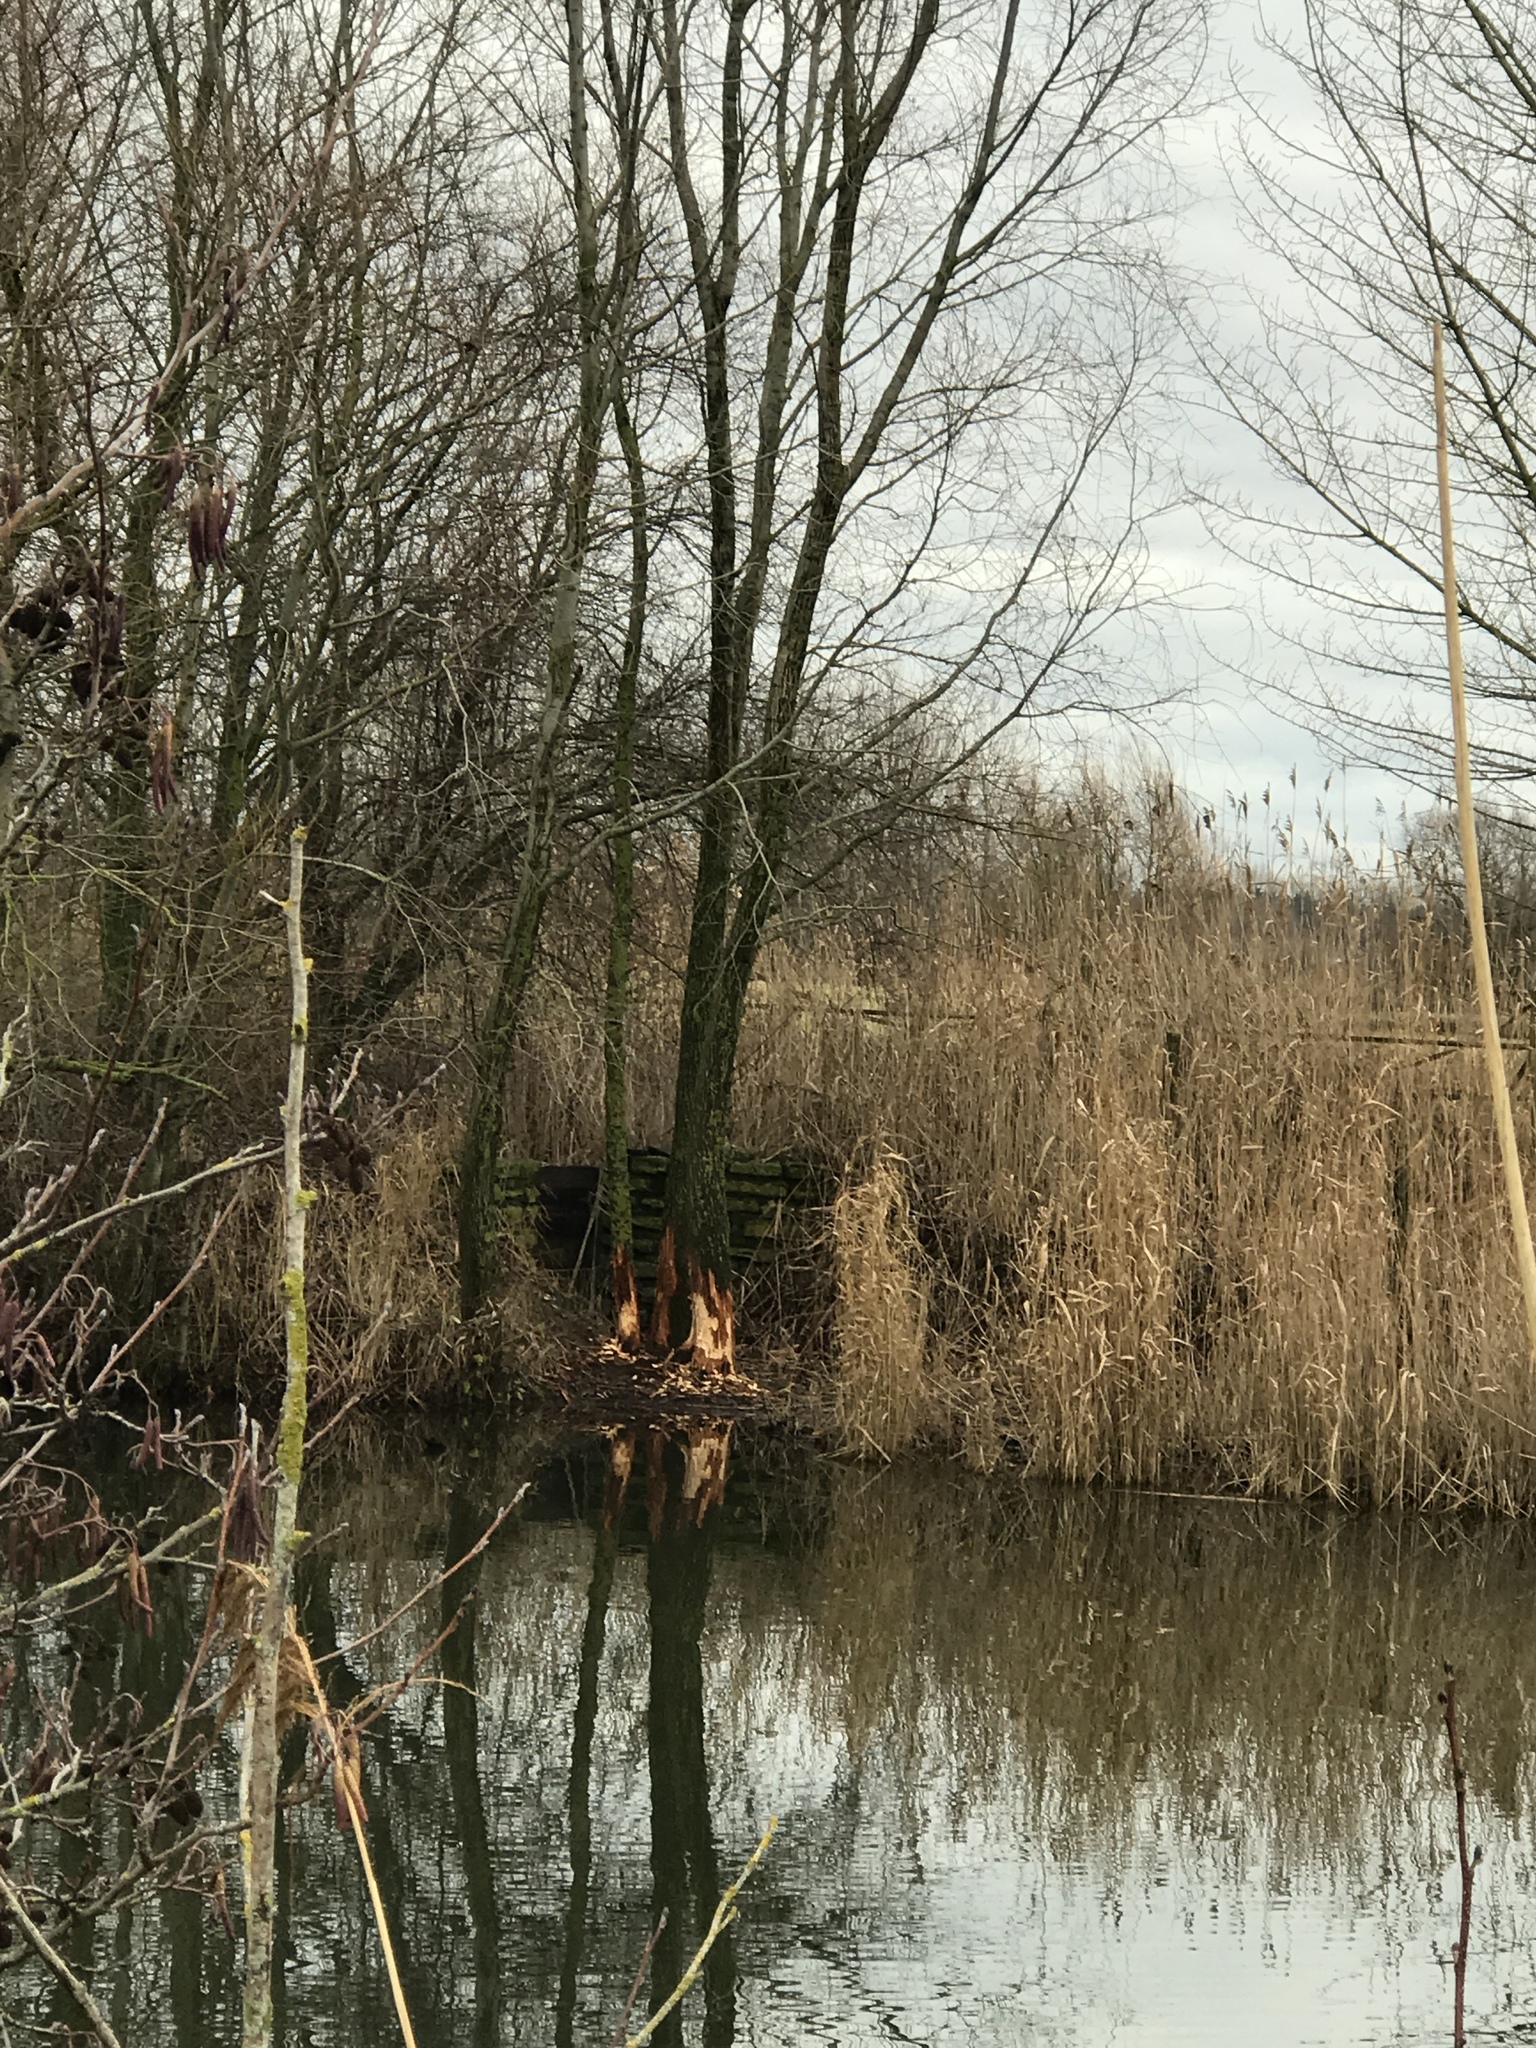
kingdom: Animalia
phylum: Chordata
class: Mammalia
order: Rodentia
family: Castoridae
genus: Castor
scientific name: Castor fiber
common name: Eurasian beaver
